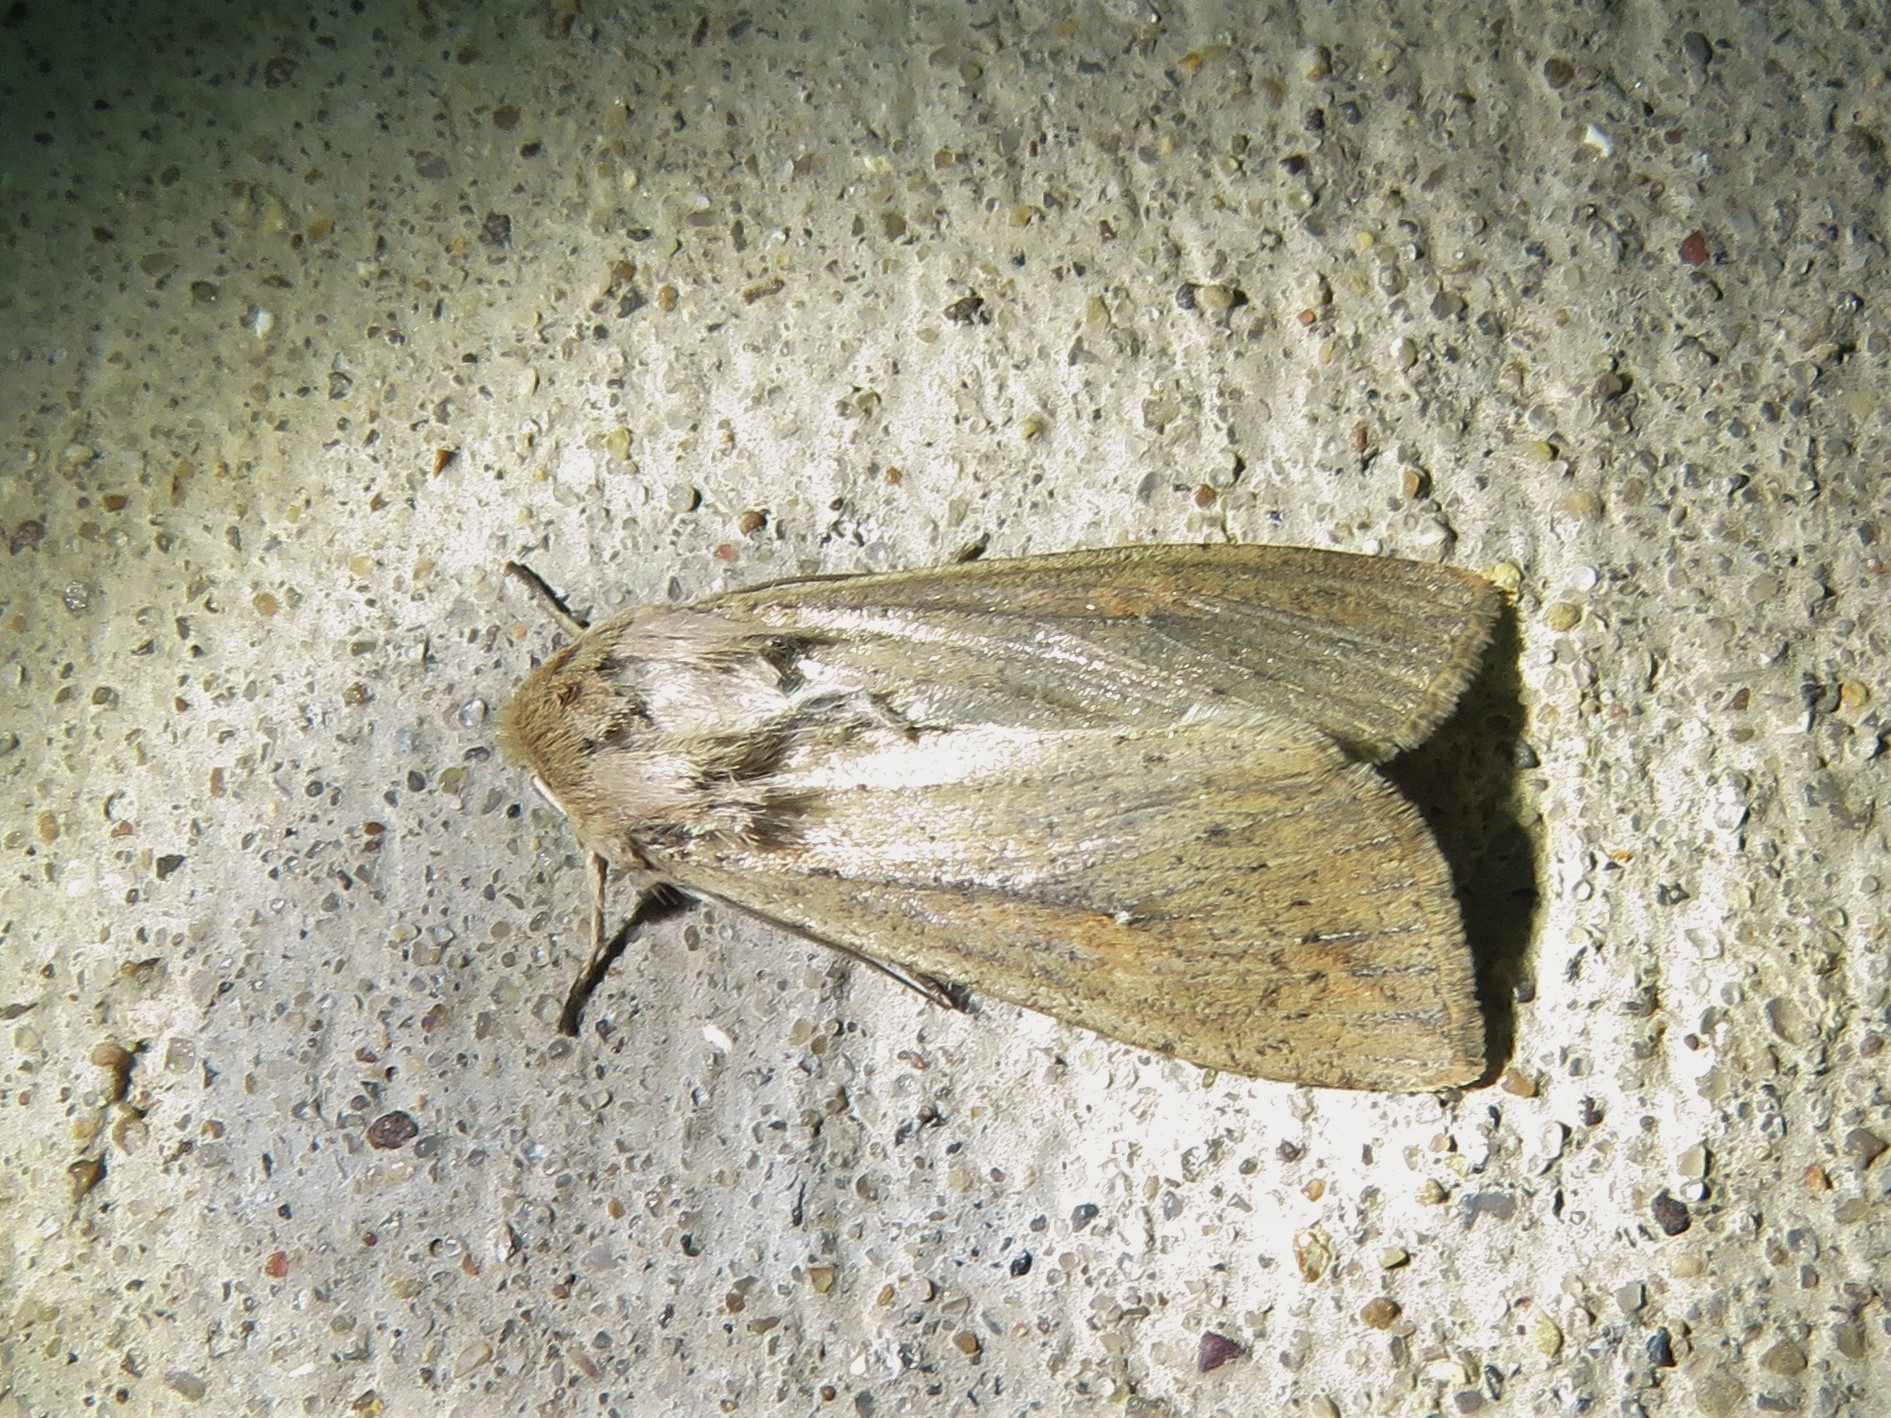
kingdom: Animalia
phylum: Arthropoda
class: Insecta
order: Lepidoptera
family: Noctuidae
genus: Mythimna
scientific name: Mythimna unipuncta
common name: White-speck
